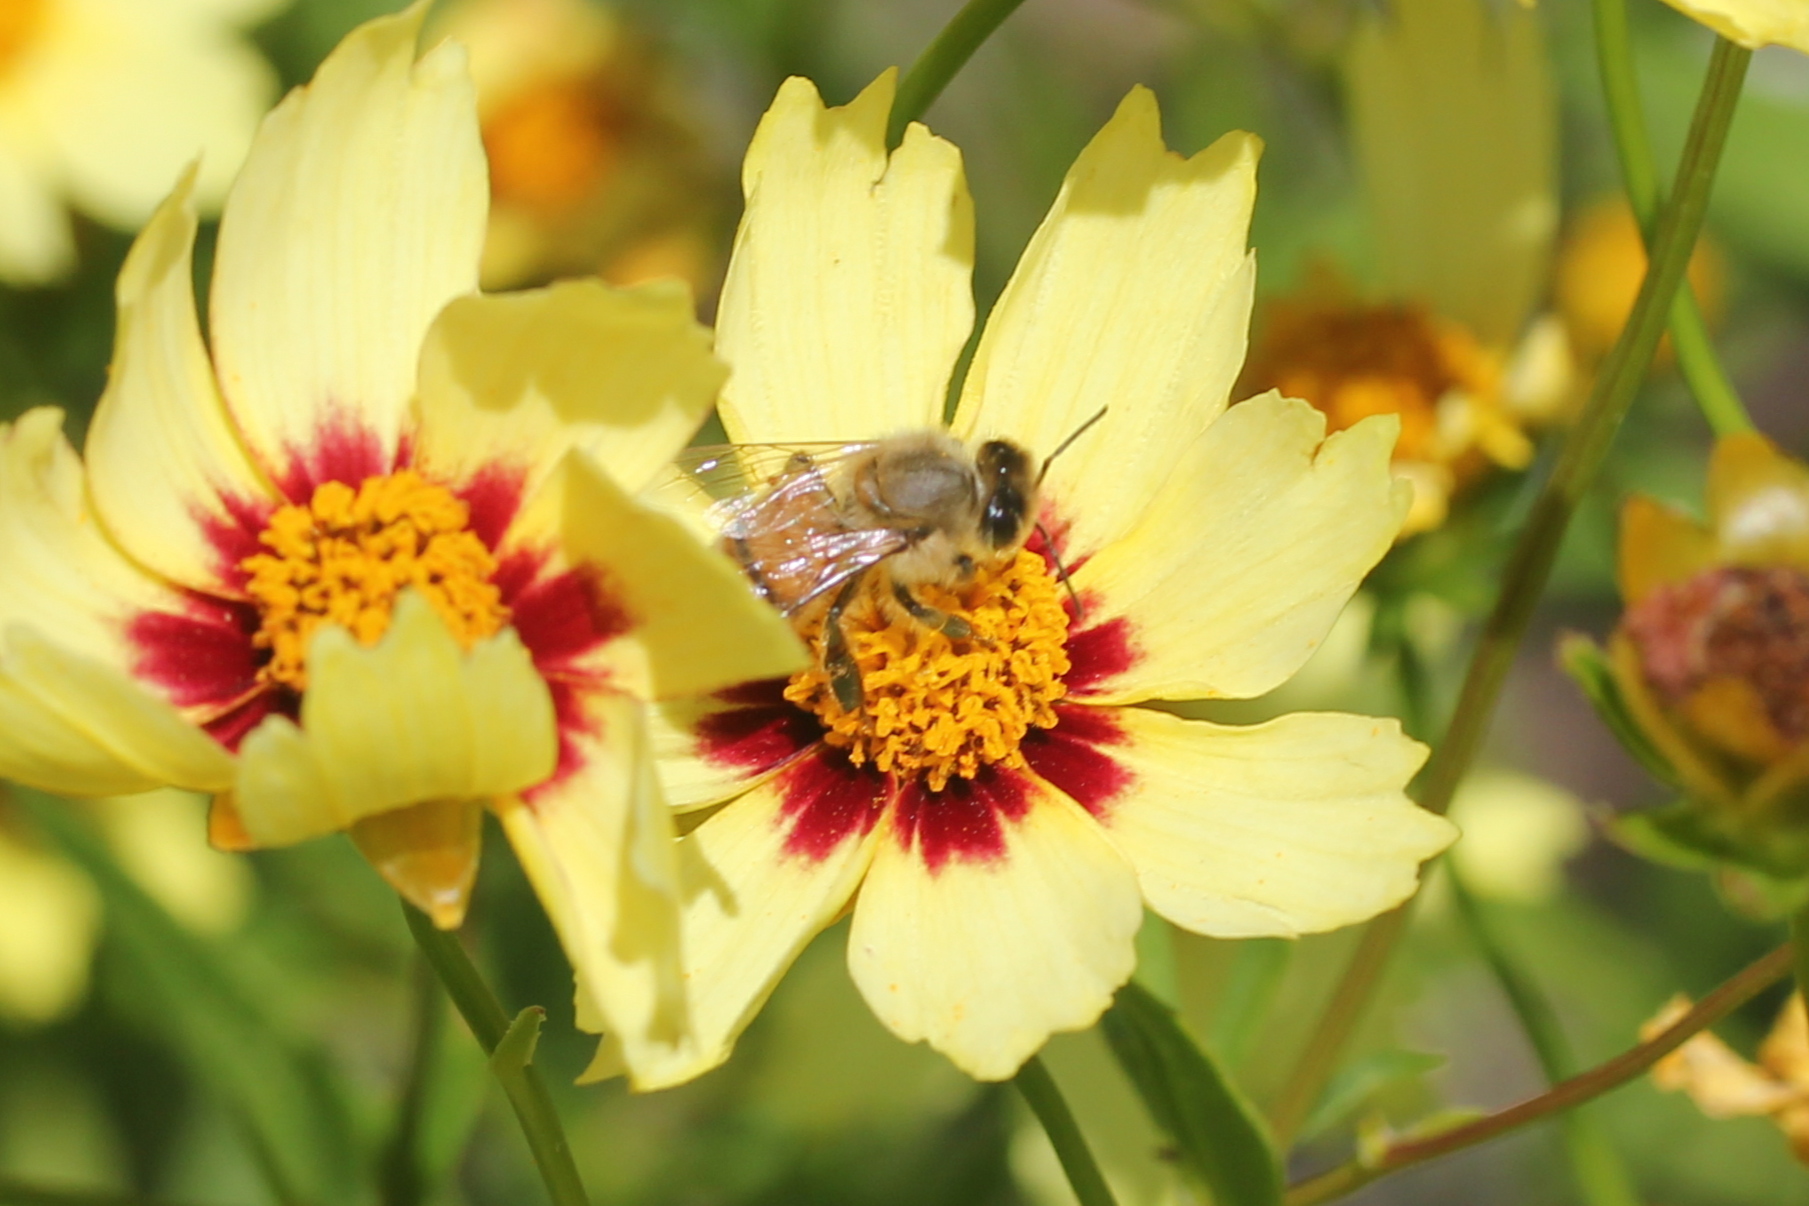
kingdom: Animalia
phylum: Arthropoda
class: Insecta
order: Hymenoptera
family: Apidae
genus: Apis
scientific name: Apis mellifera
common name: Honey bee
